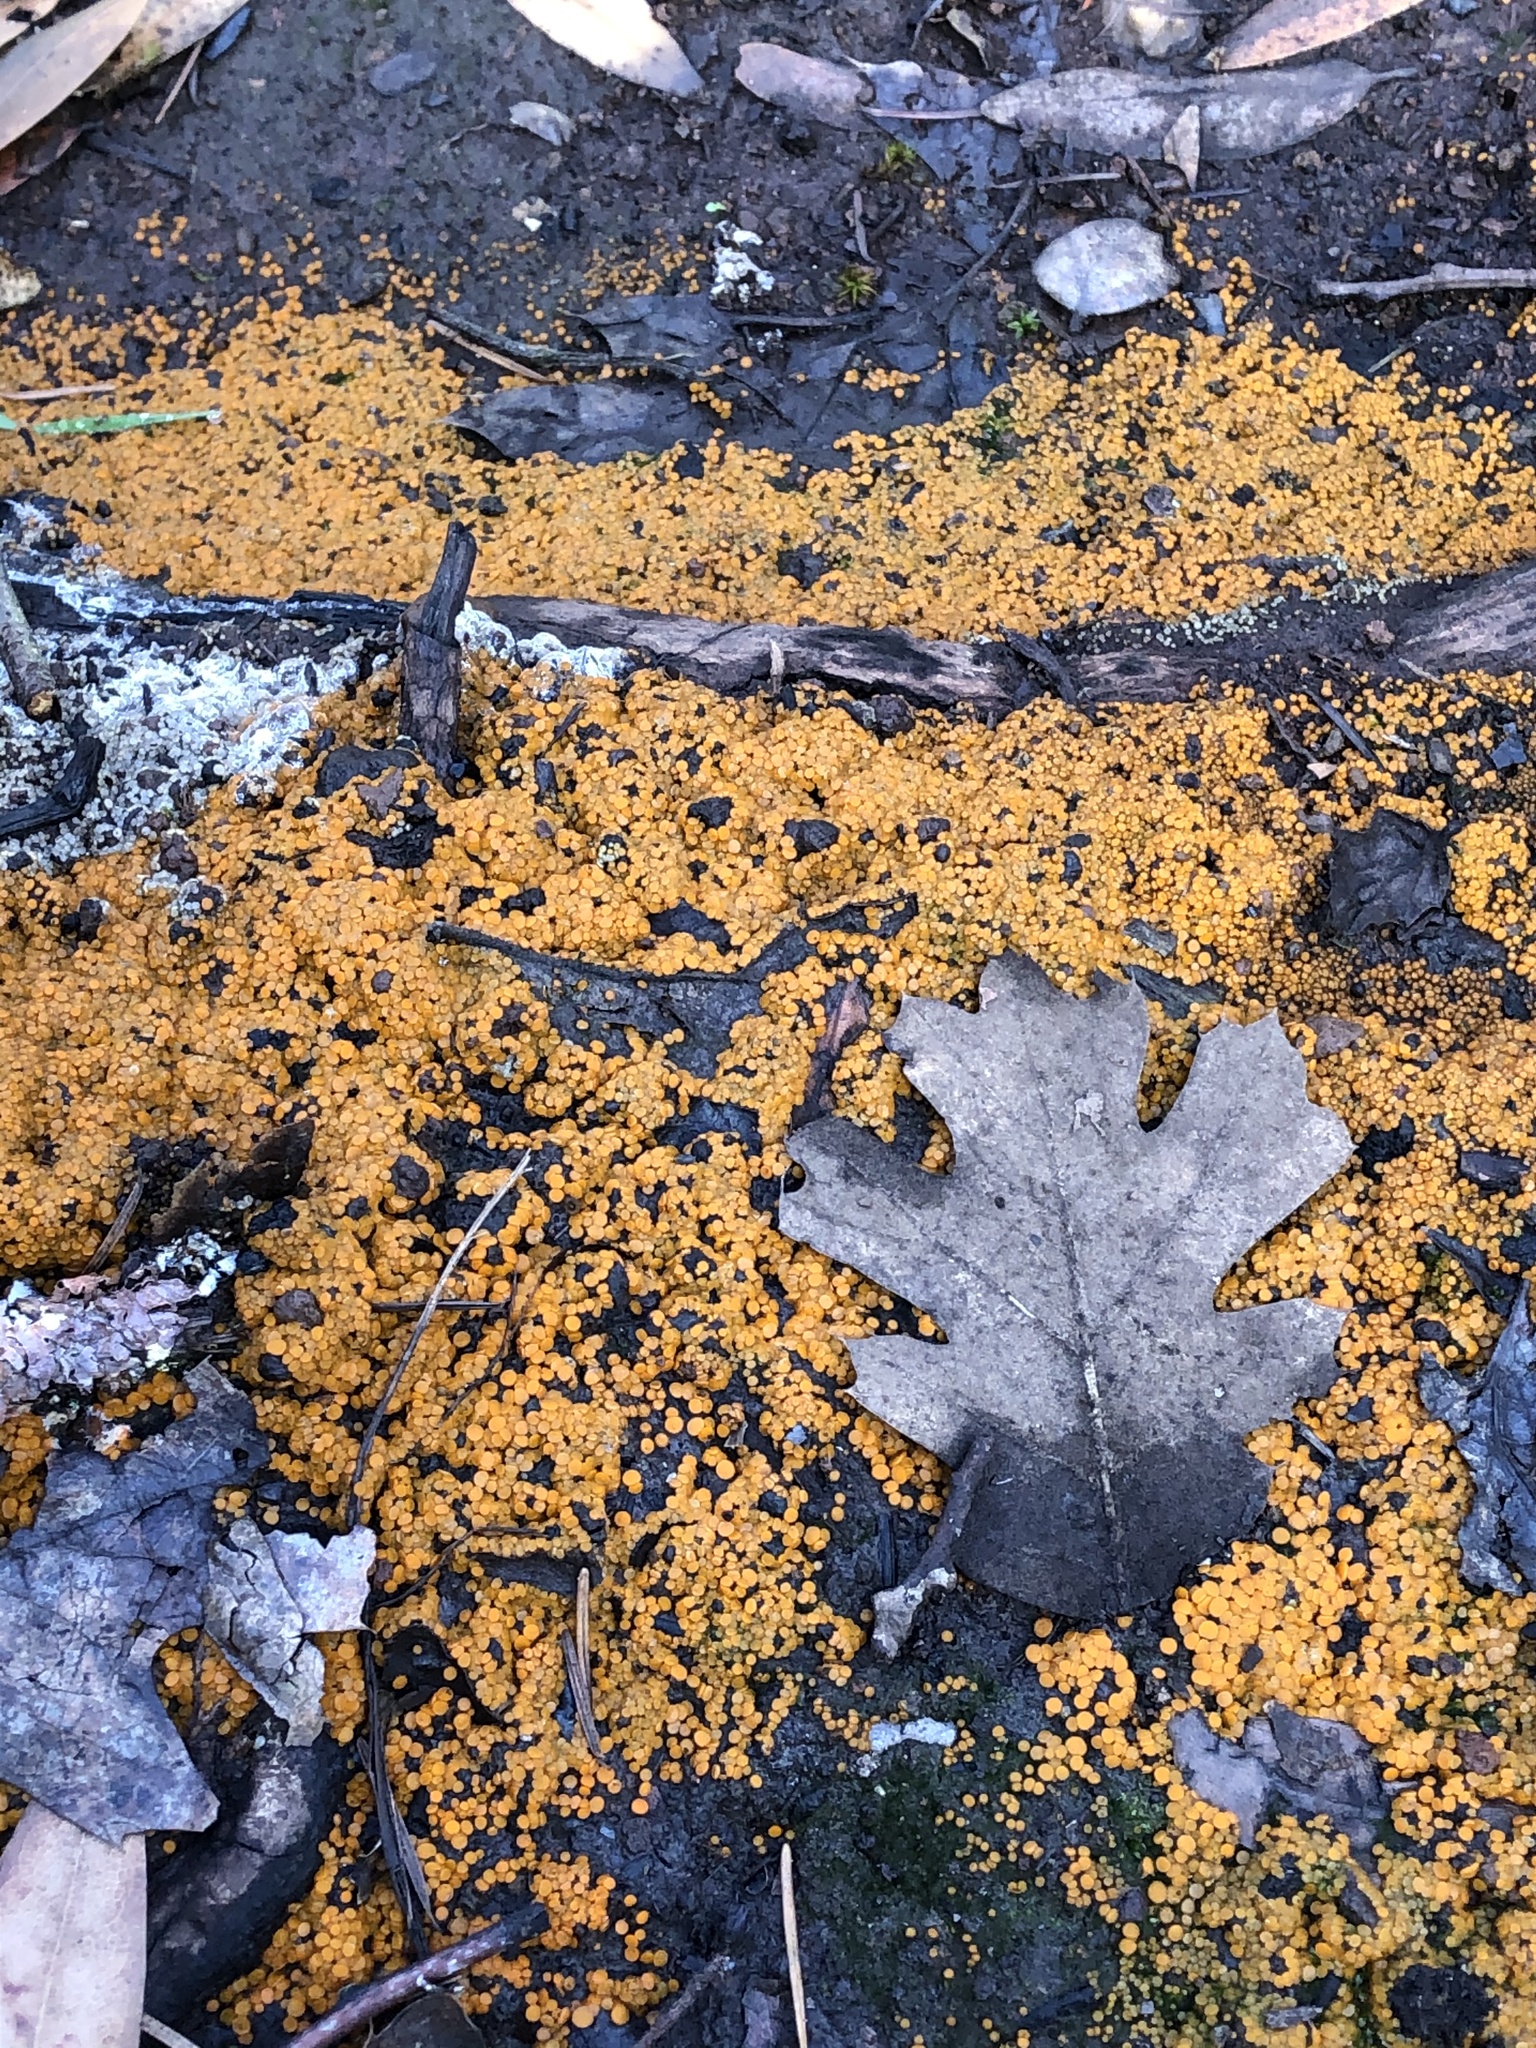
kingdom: Fungi
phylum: Ascomycota
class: Pezizomycetes
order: Pezizales
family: Pyronemataceae
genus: Anthracobia
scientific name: Anthracobia melaloma
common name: Charcoal eyelash
